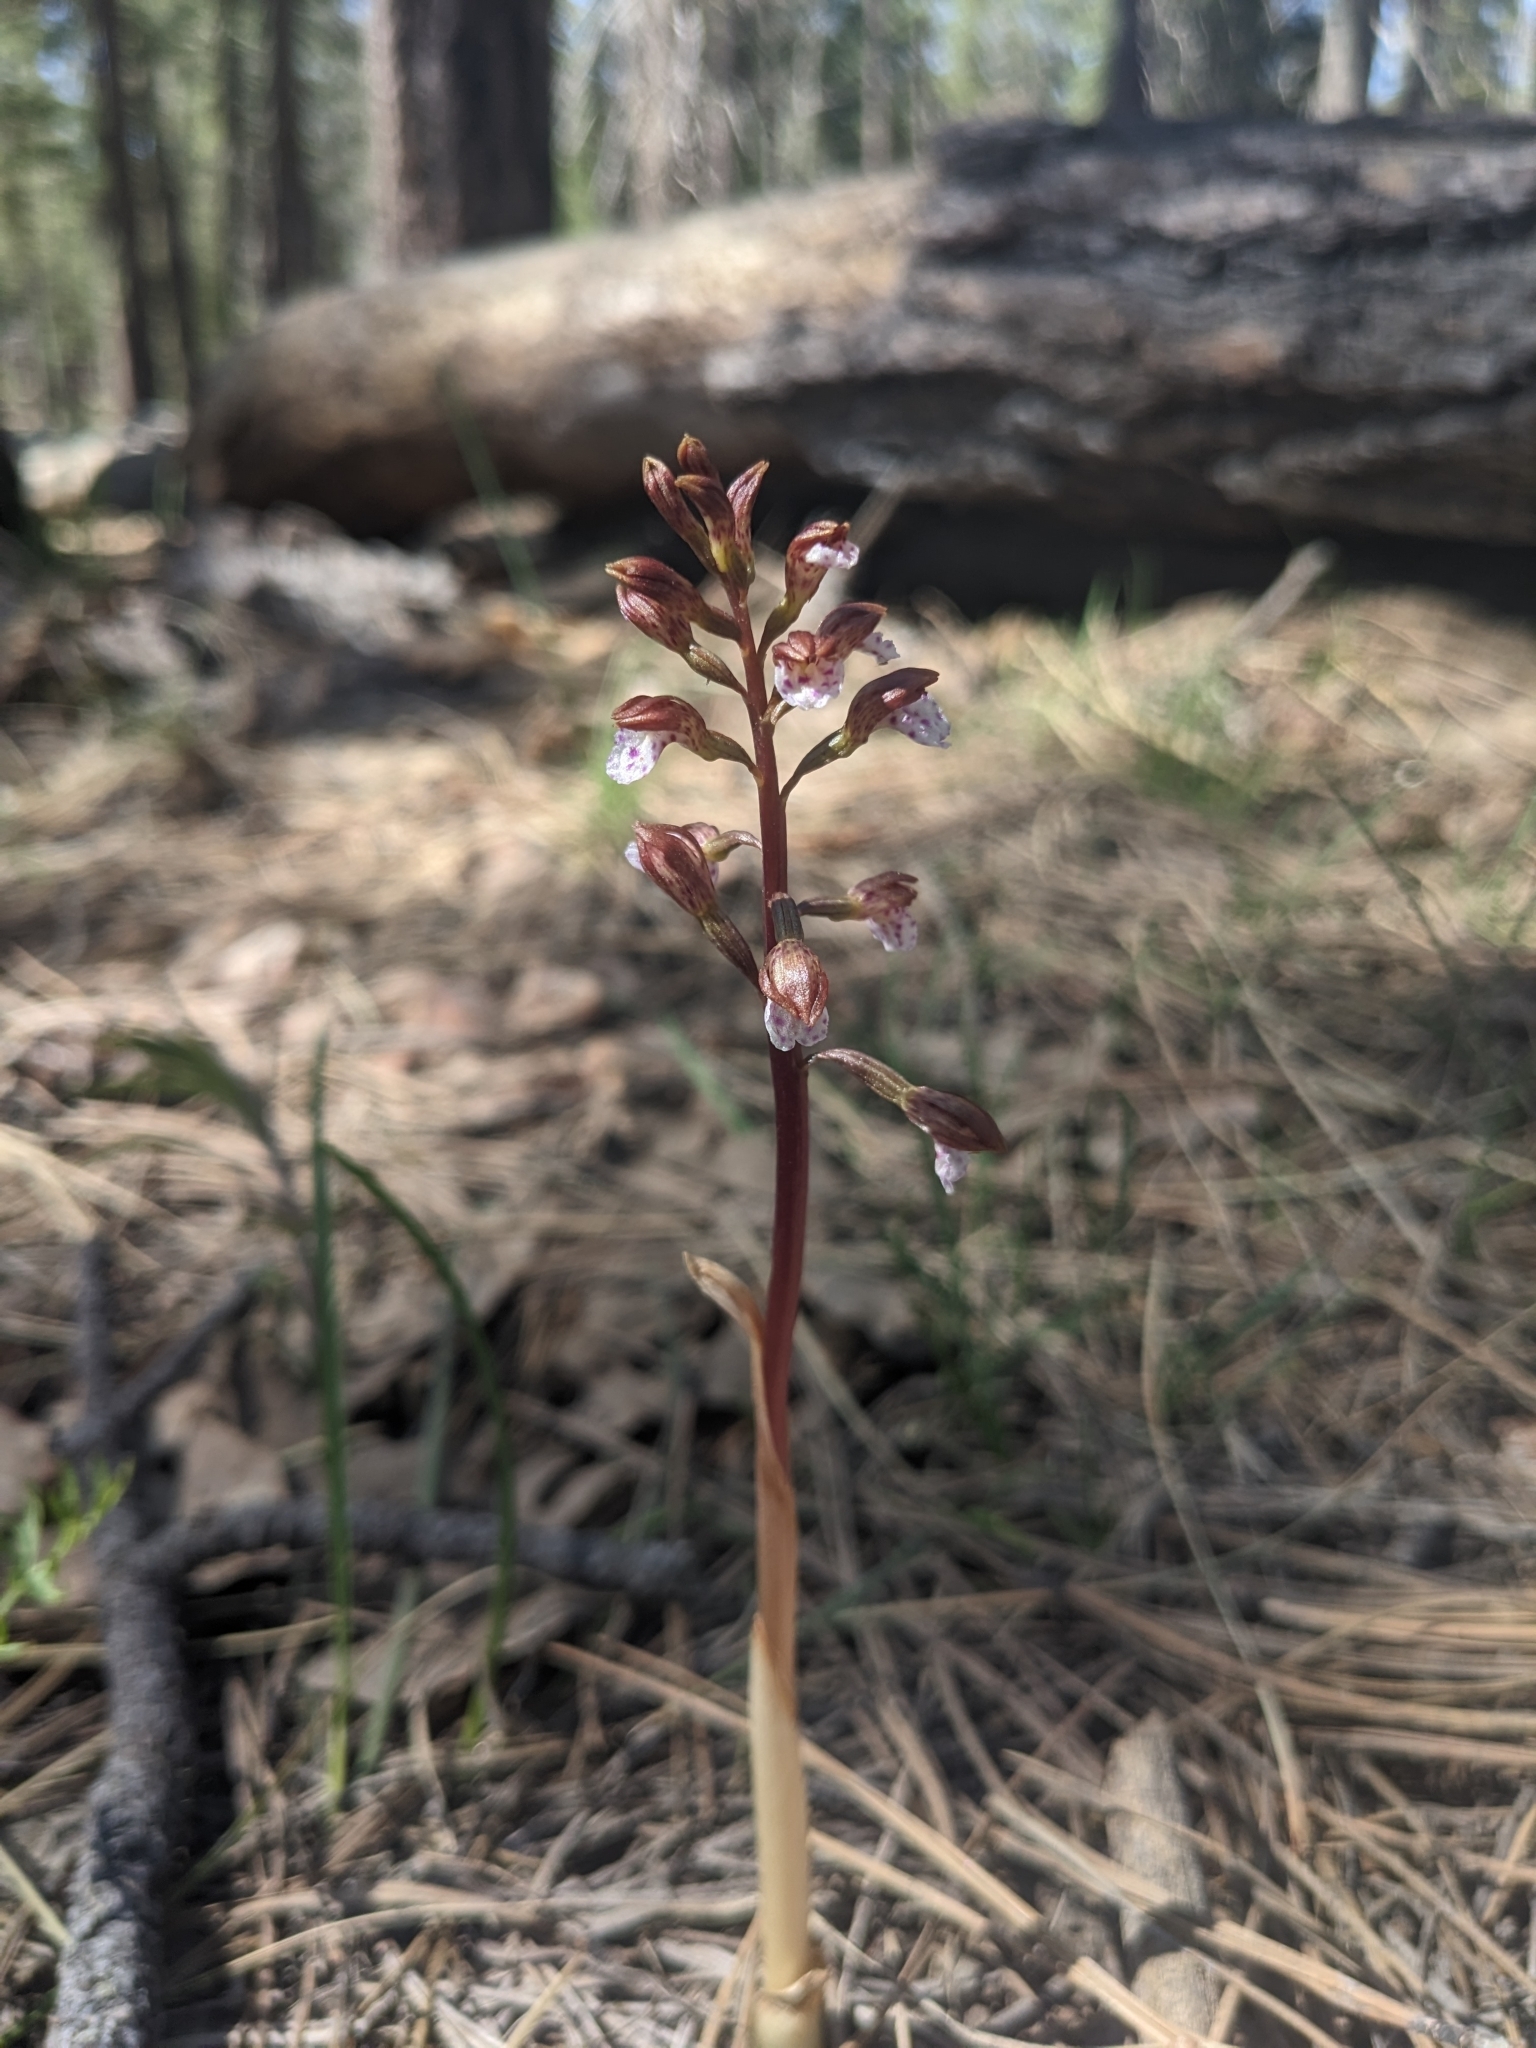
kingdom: Plantae
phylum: Tracheophyta
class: Liliopsida
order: Asparagales
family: Orchidaceae
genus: Corallorhiza
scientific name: Corallorhiza wisteriana
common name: Spring coralroot
